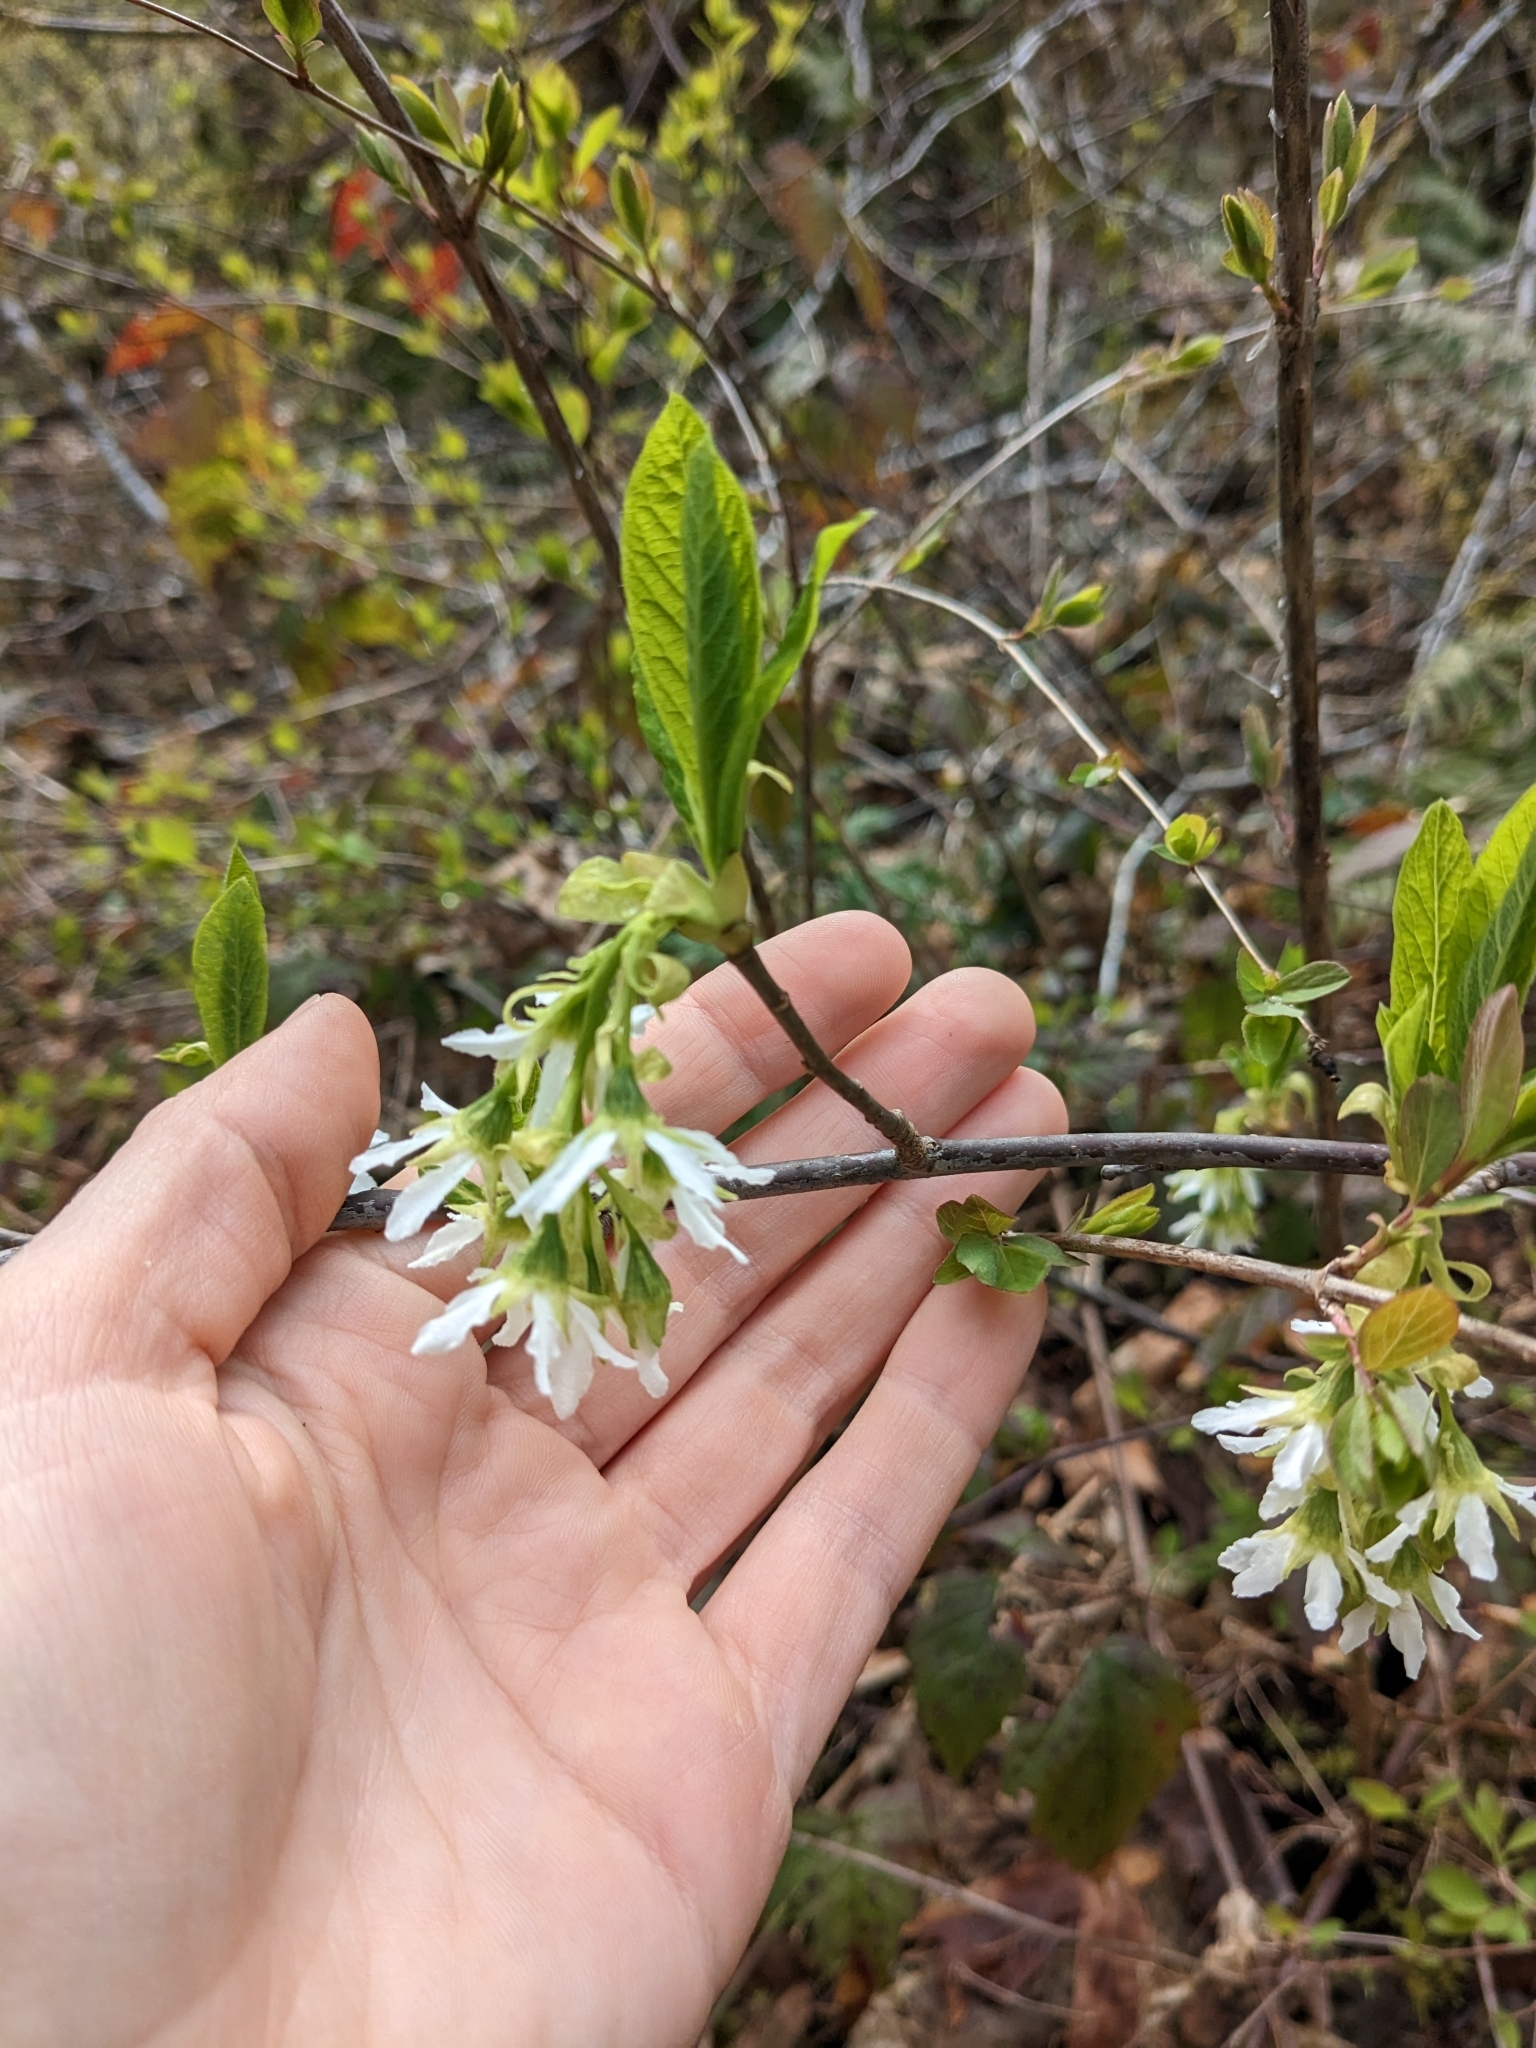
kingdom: Plantae
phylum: Tracheophyta
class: Magnoliopsida
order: Rosales
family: Rosaceae
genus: Oemleria
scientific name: Oemleria cerasiformis
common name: Osoberry
